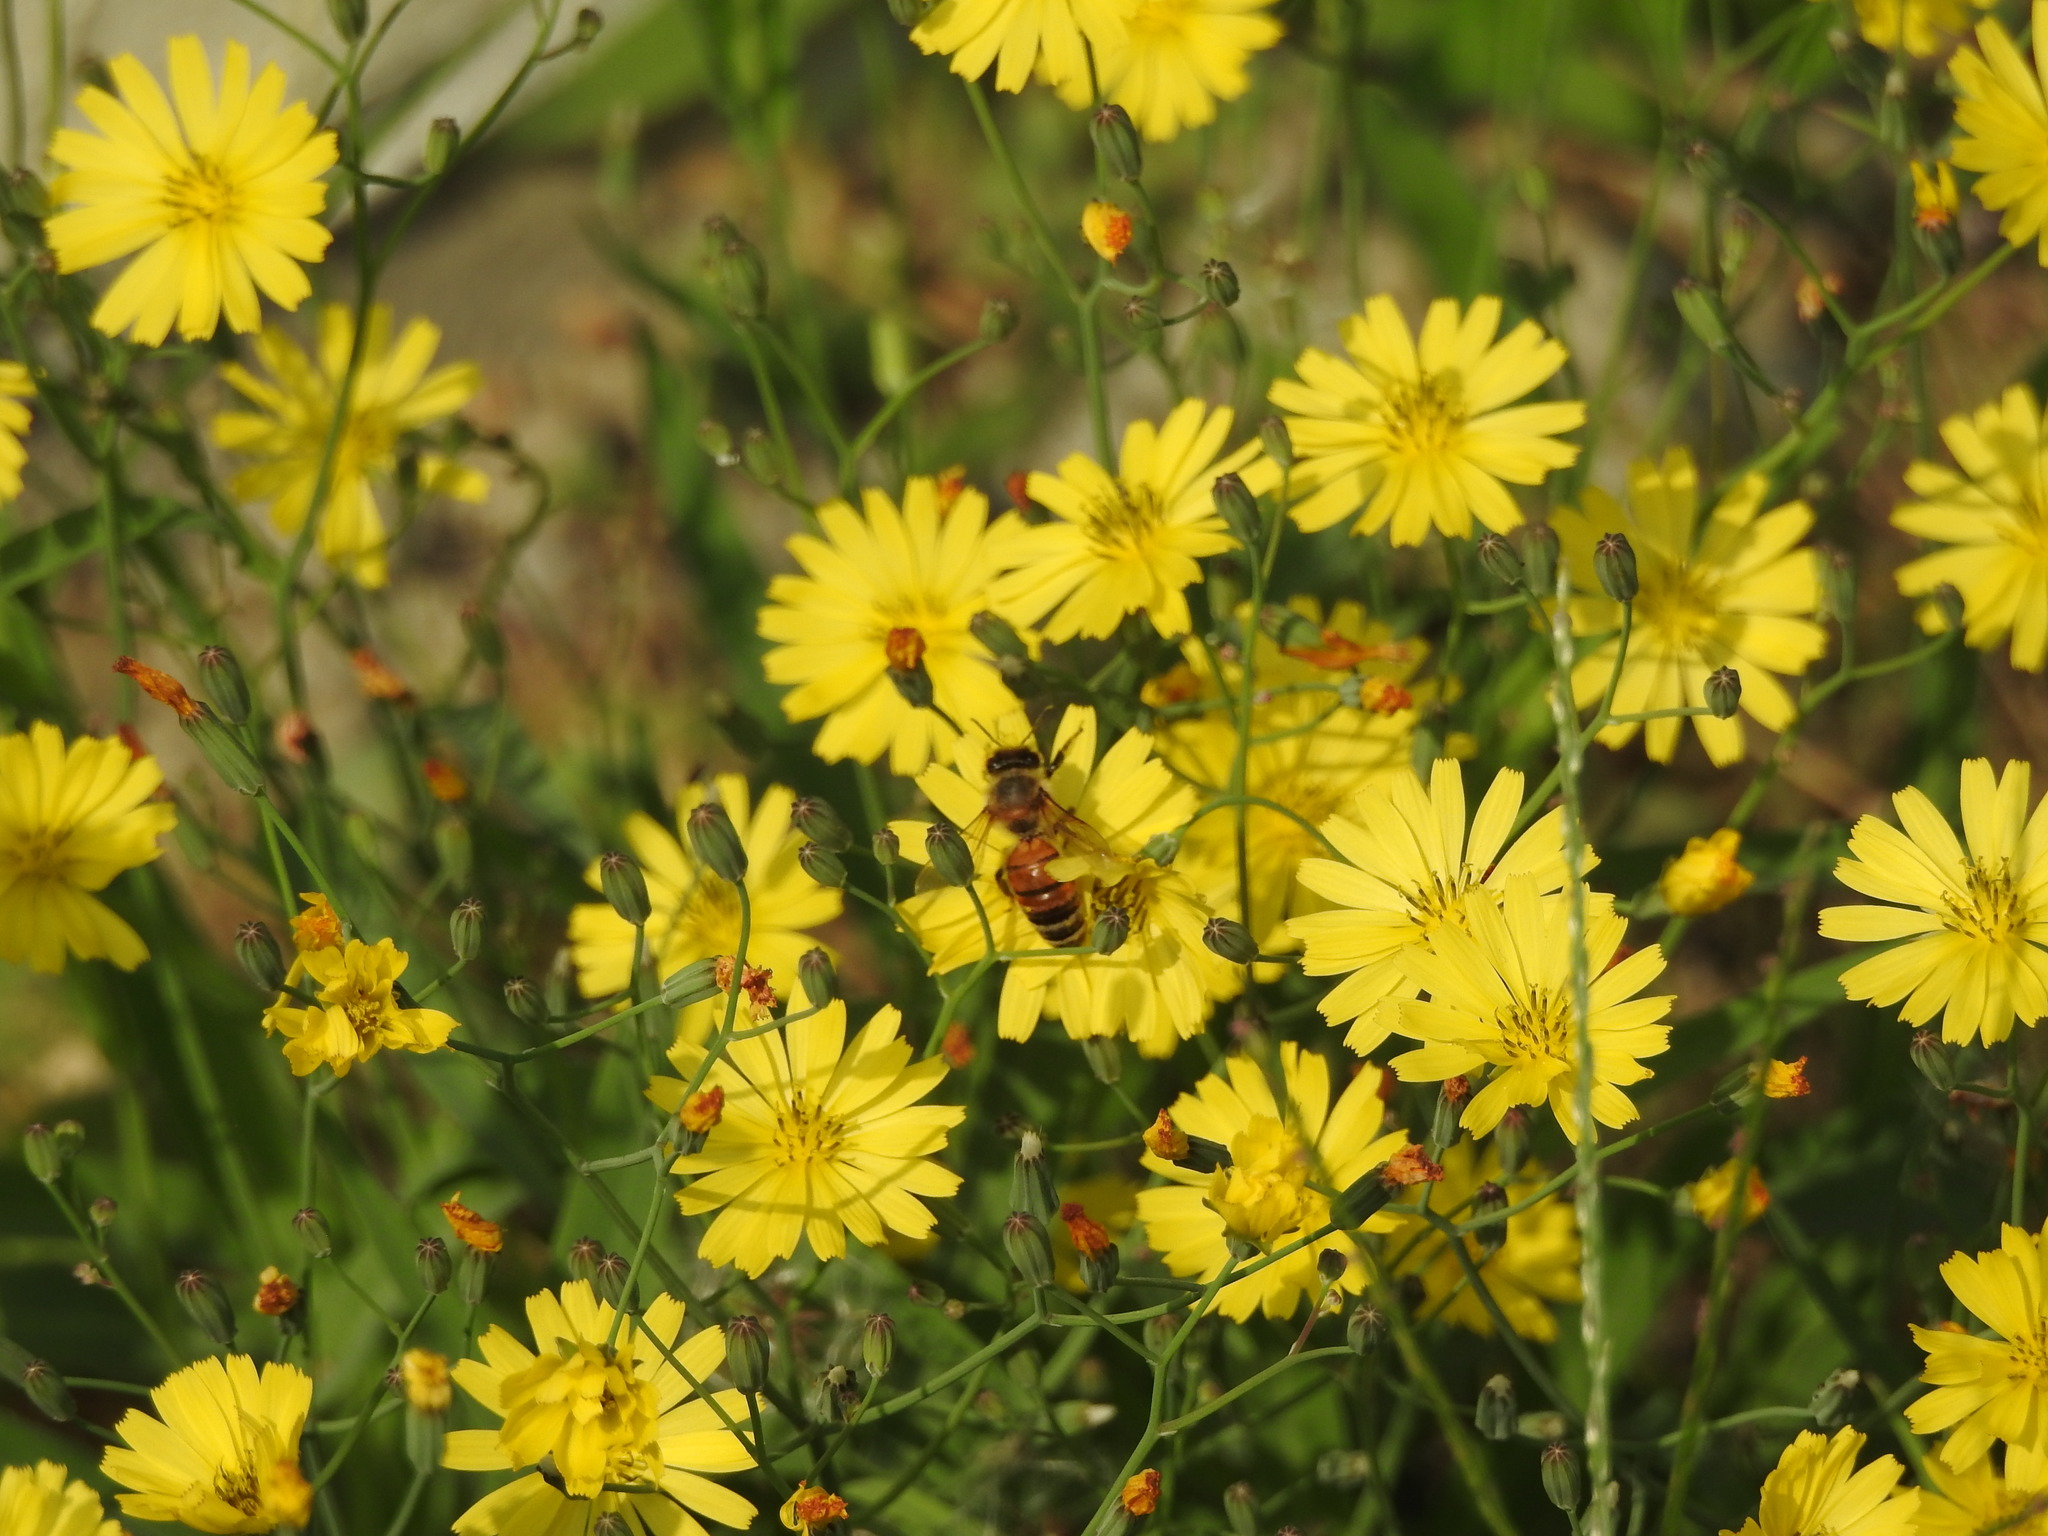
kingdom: Animalia
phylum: Arthropoda
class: Insecta
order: Hymenoptera
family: Apidae
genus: Apis
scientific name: Apis mellifera
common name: Honey bee
